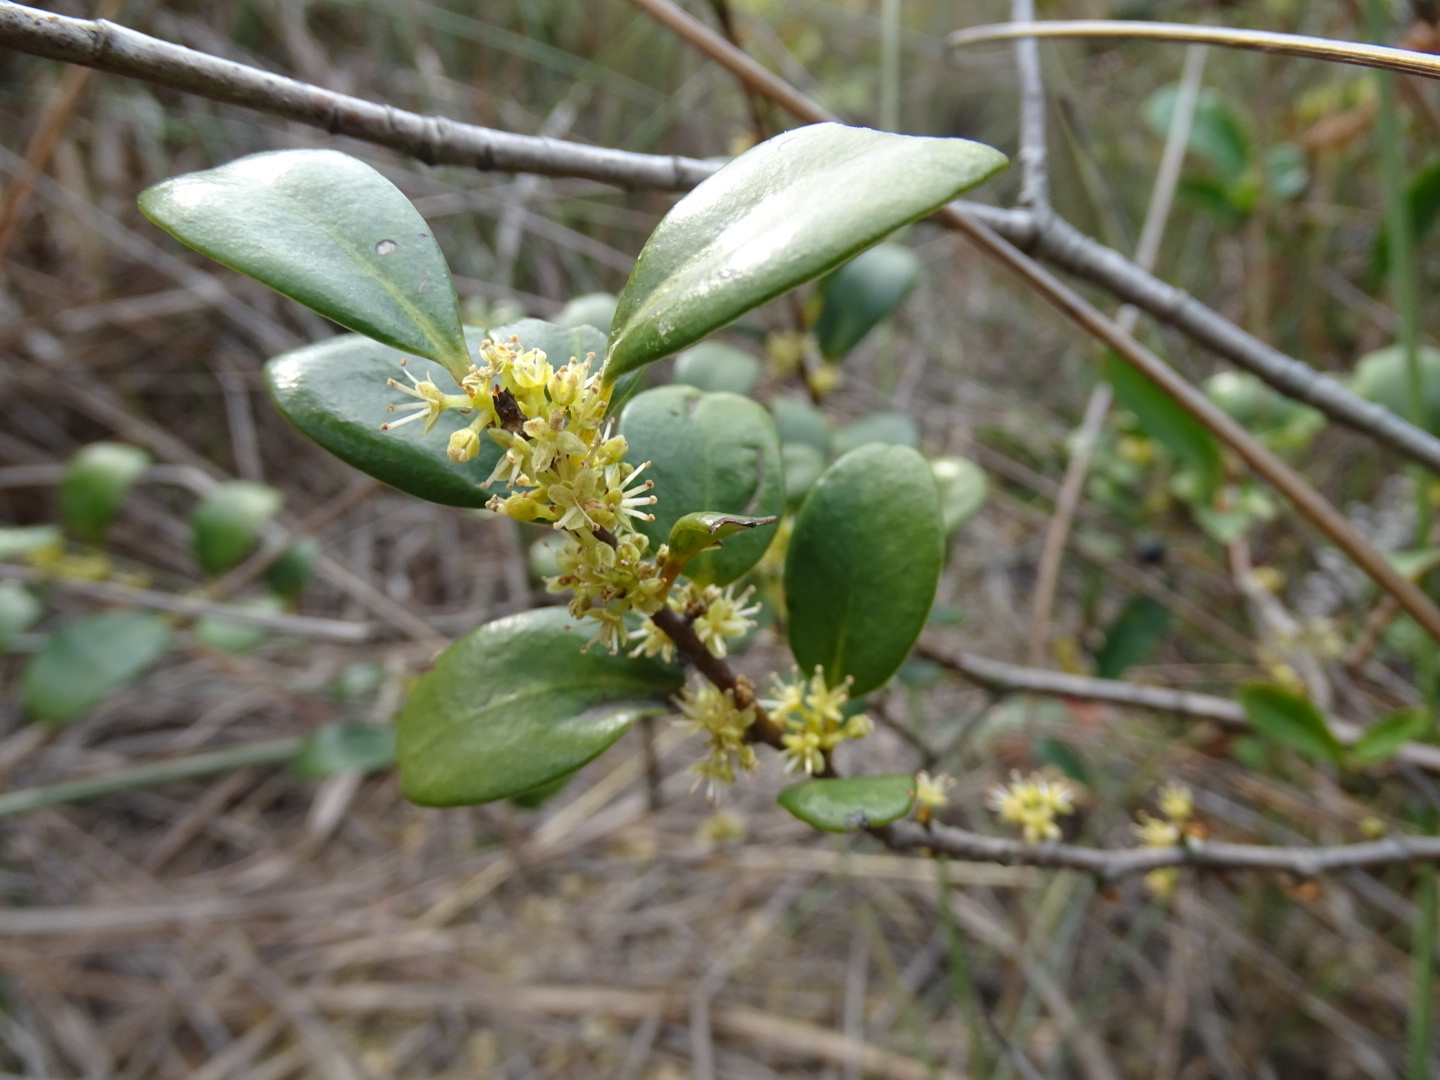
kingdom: Plantae
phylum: Tracheophyta
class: Magnoliopsida
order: Ericales
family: Primulaceae
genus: Embelia
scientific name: Embelia laeta
